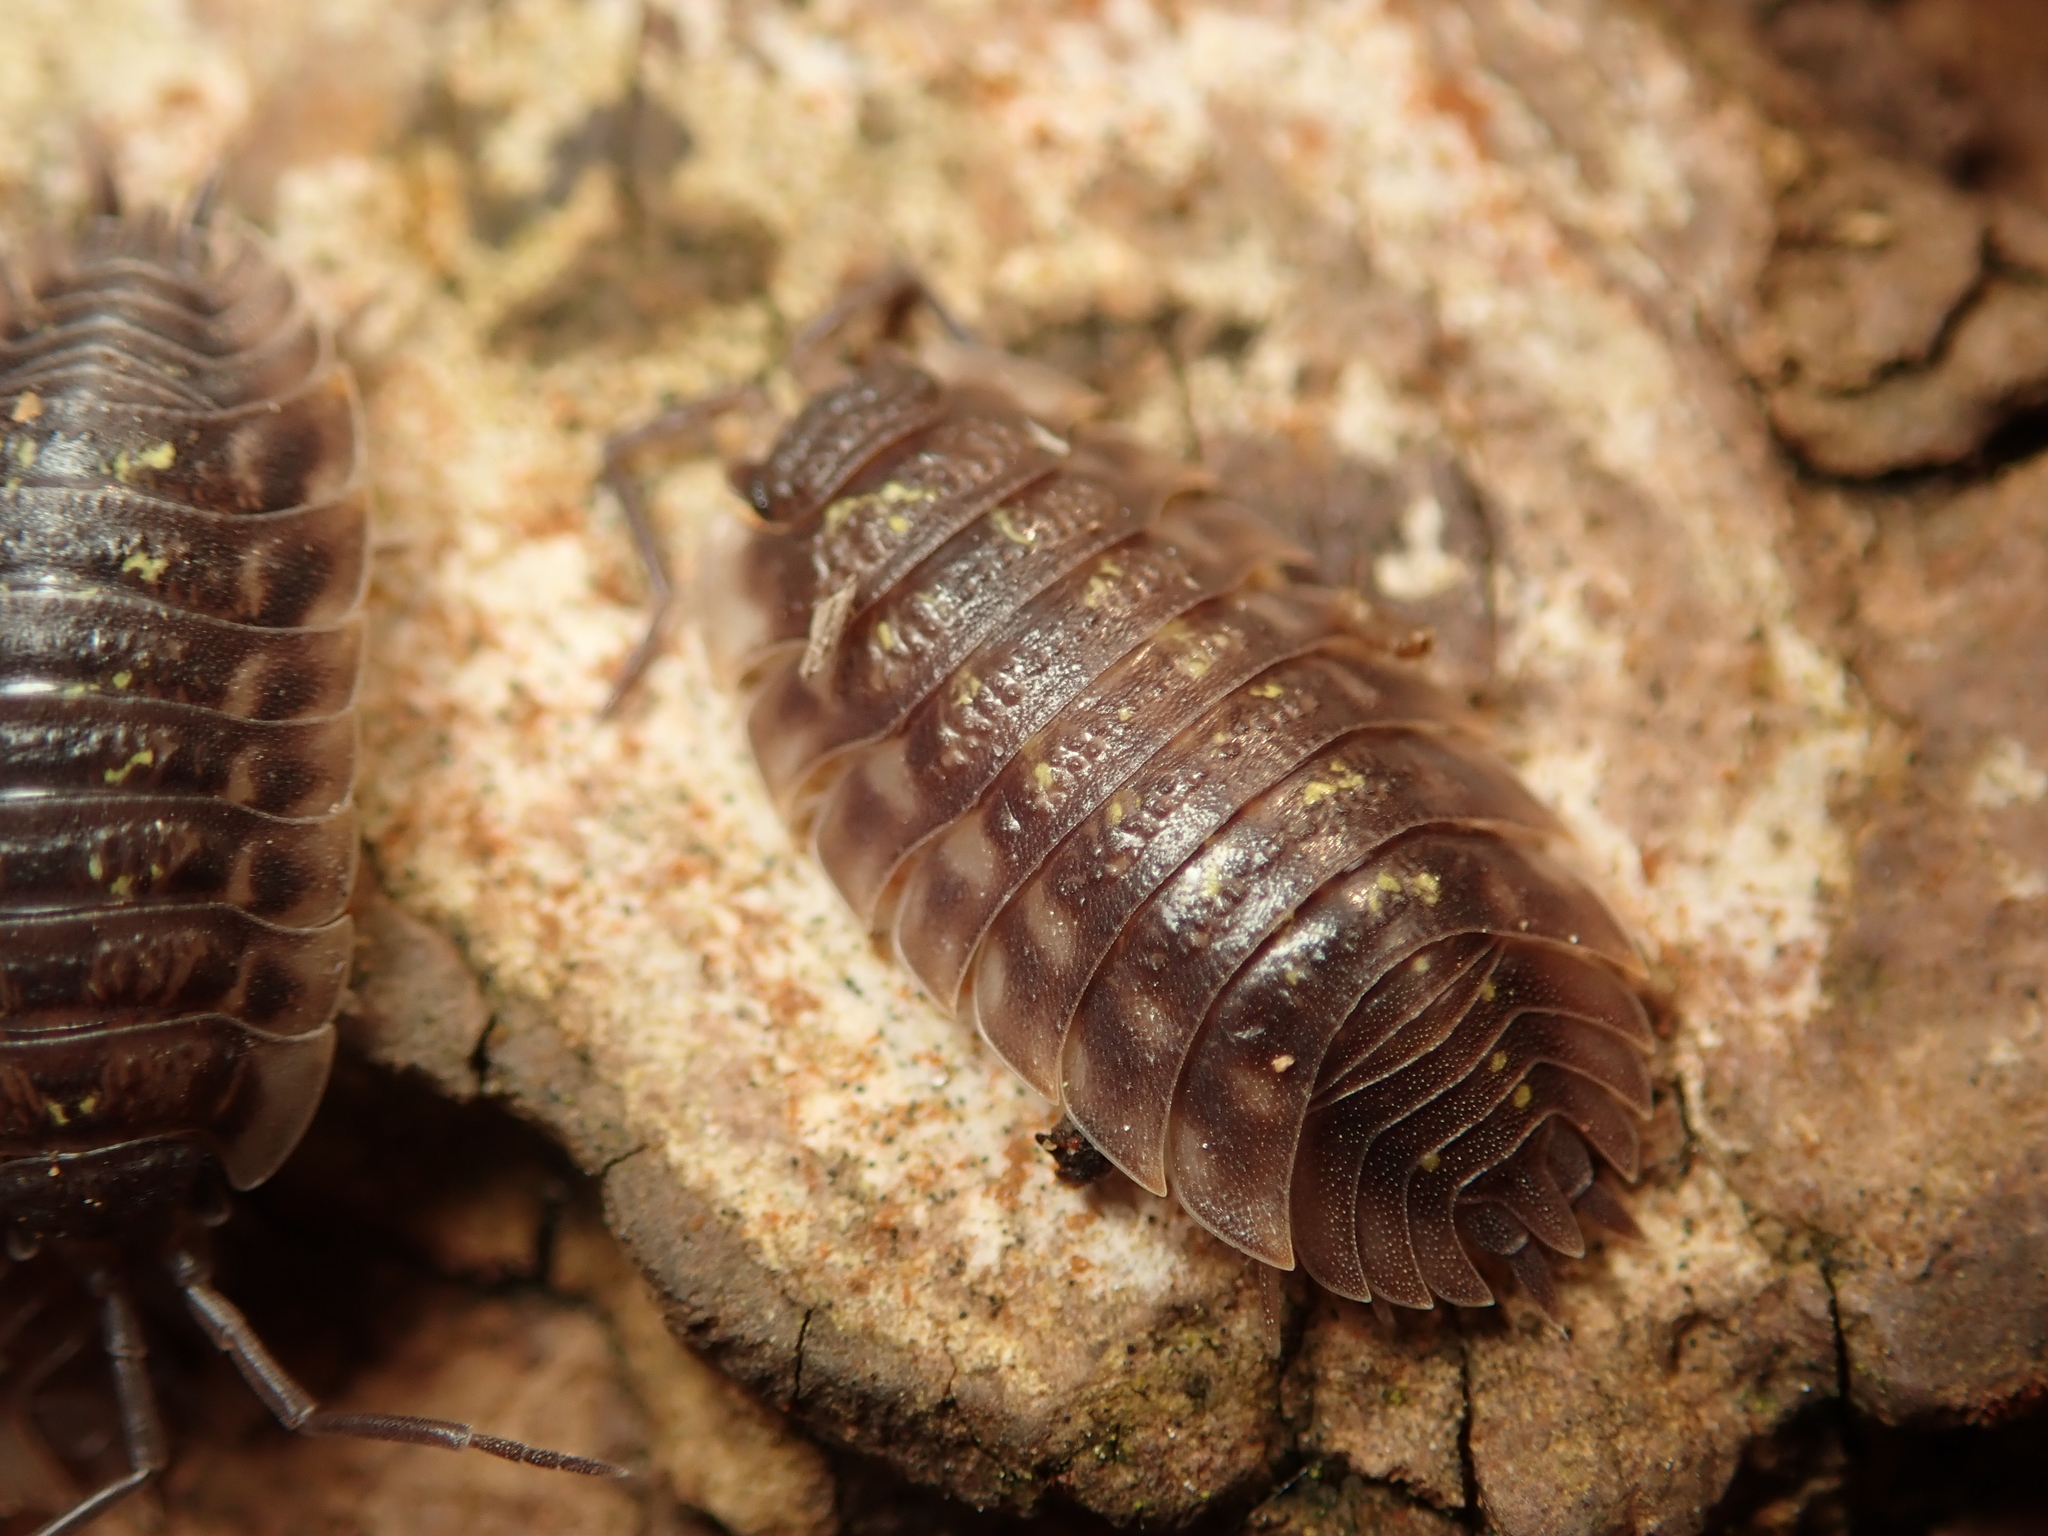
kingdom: Animalia
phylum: Arthropoda
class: Malacostraca
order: Isopoda
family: Oniscidae
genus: Oniscus
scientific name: Oniscus asellus
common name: Common shiny woodlouse
